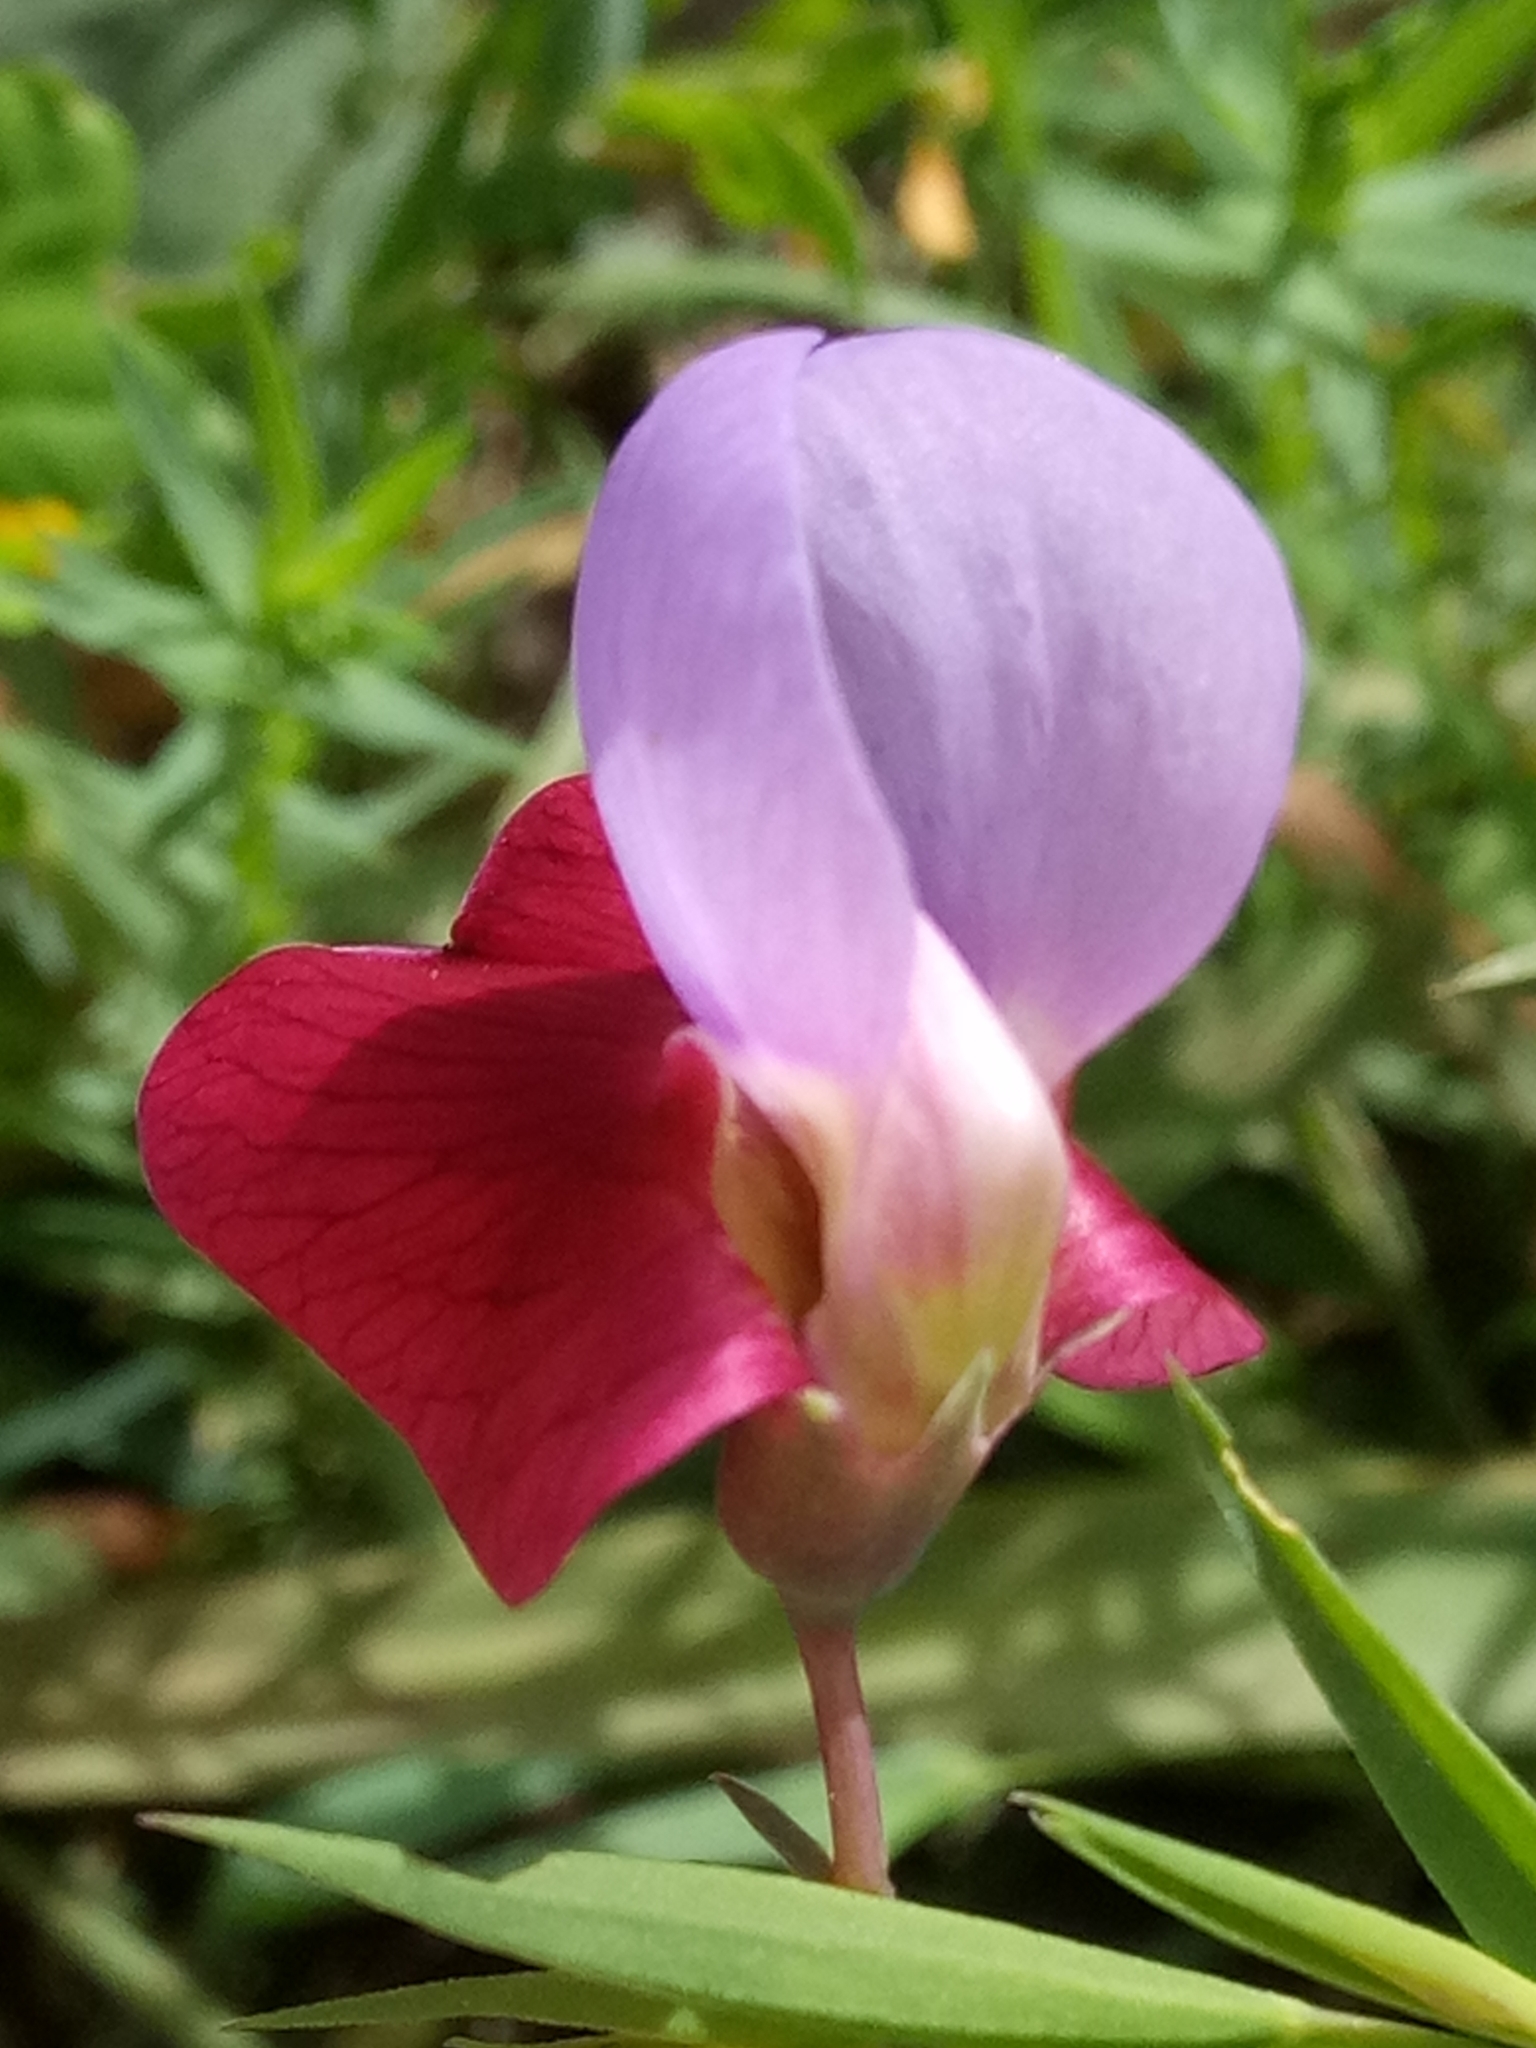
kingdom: Plantae
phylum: Tracheophyta
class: Magnoliopsida
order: Fabales
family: Fabaceae
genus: Lathyrus
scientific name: Lathyrus clymenum
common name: Spanish vetchling
